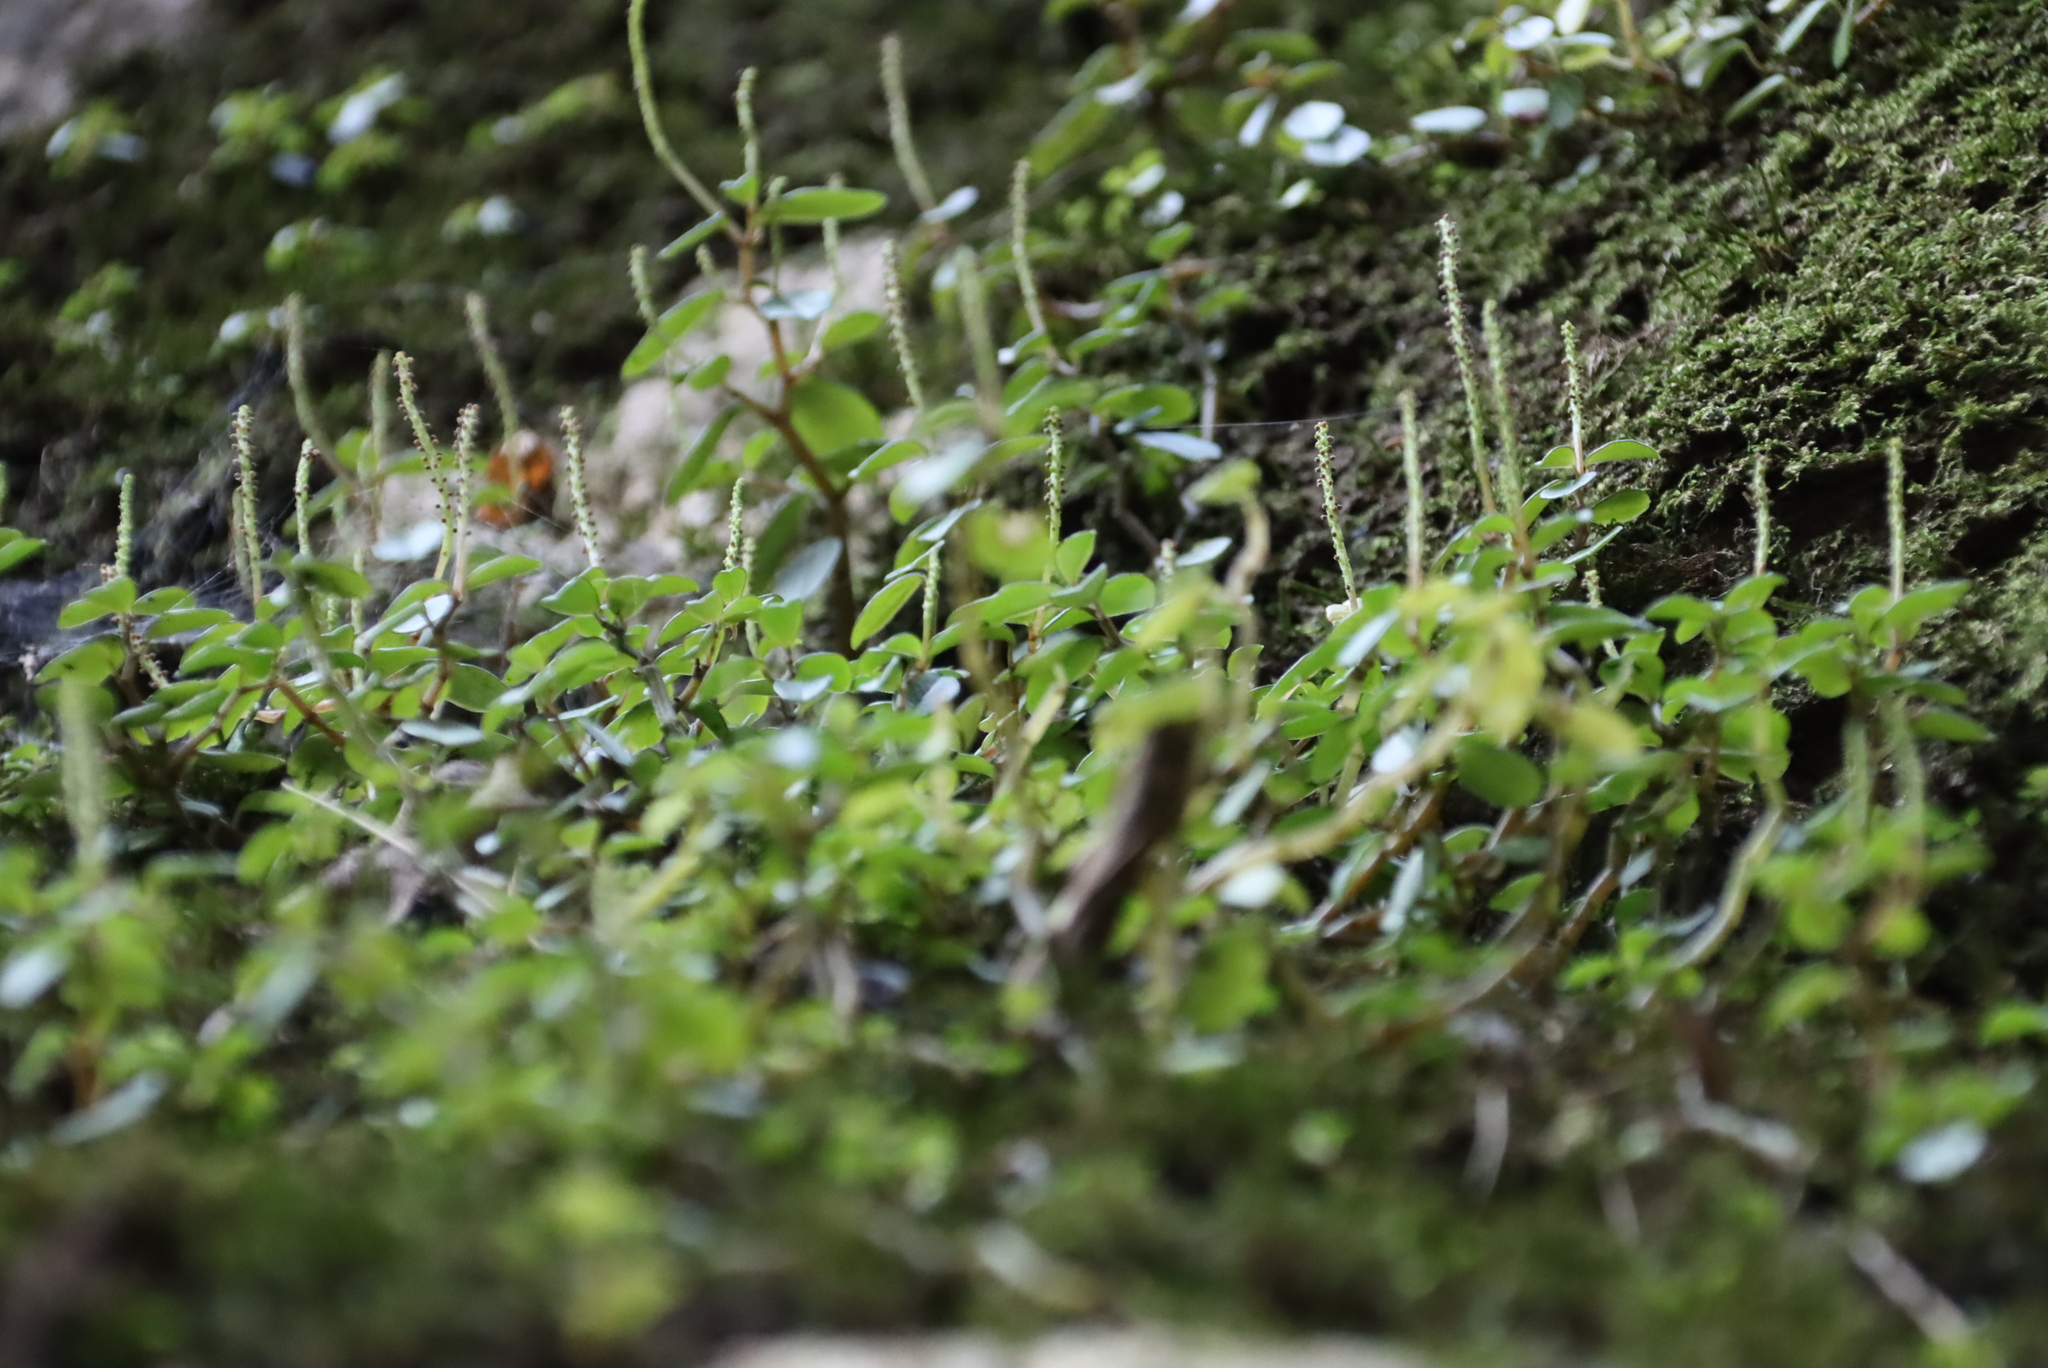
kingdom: Plantae
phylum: Tracheophyta
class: Magnoliopsida
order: Piperales
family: Piperaceae
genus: Peperomia
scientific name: Peperomia retusa
